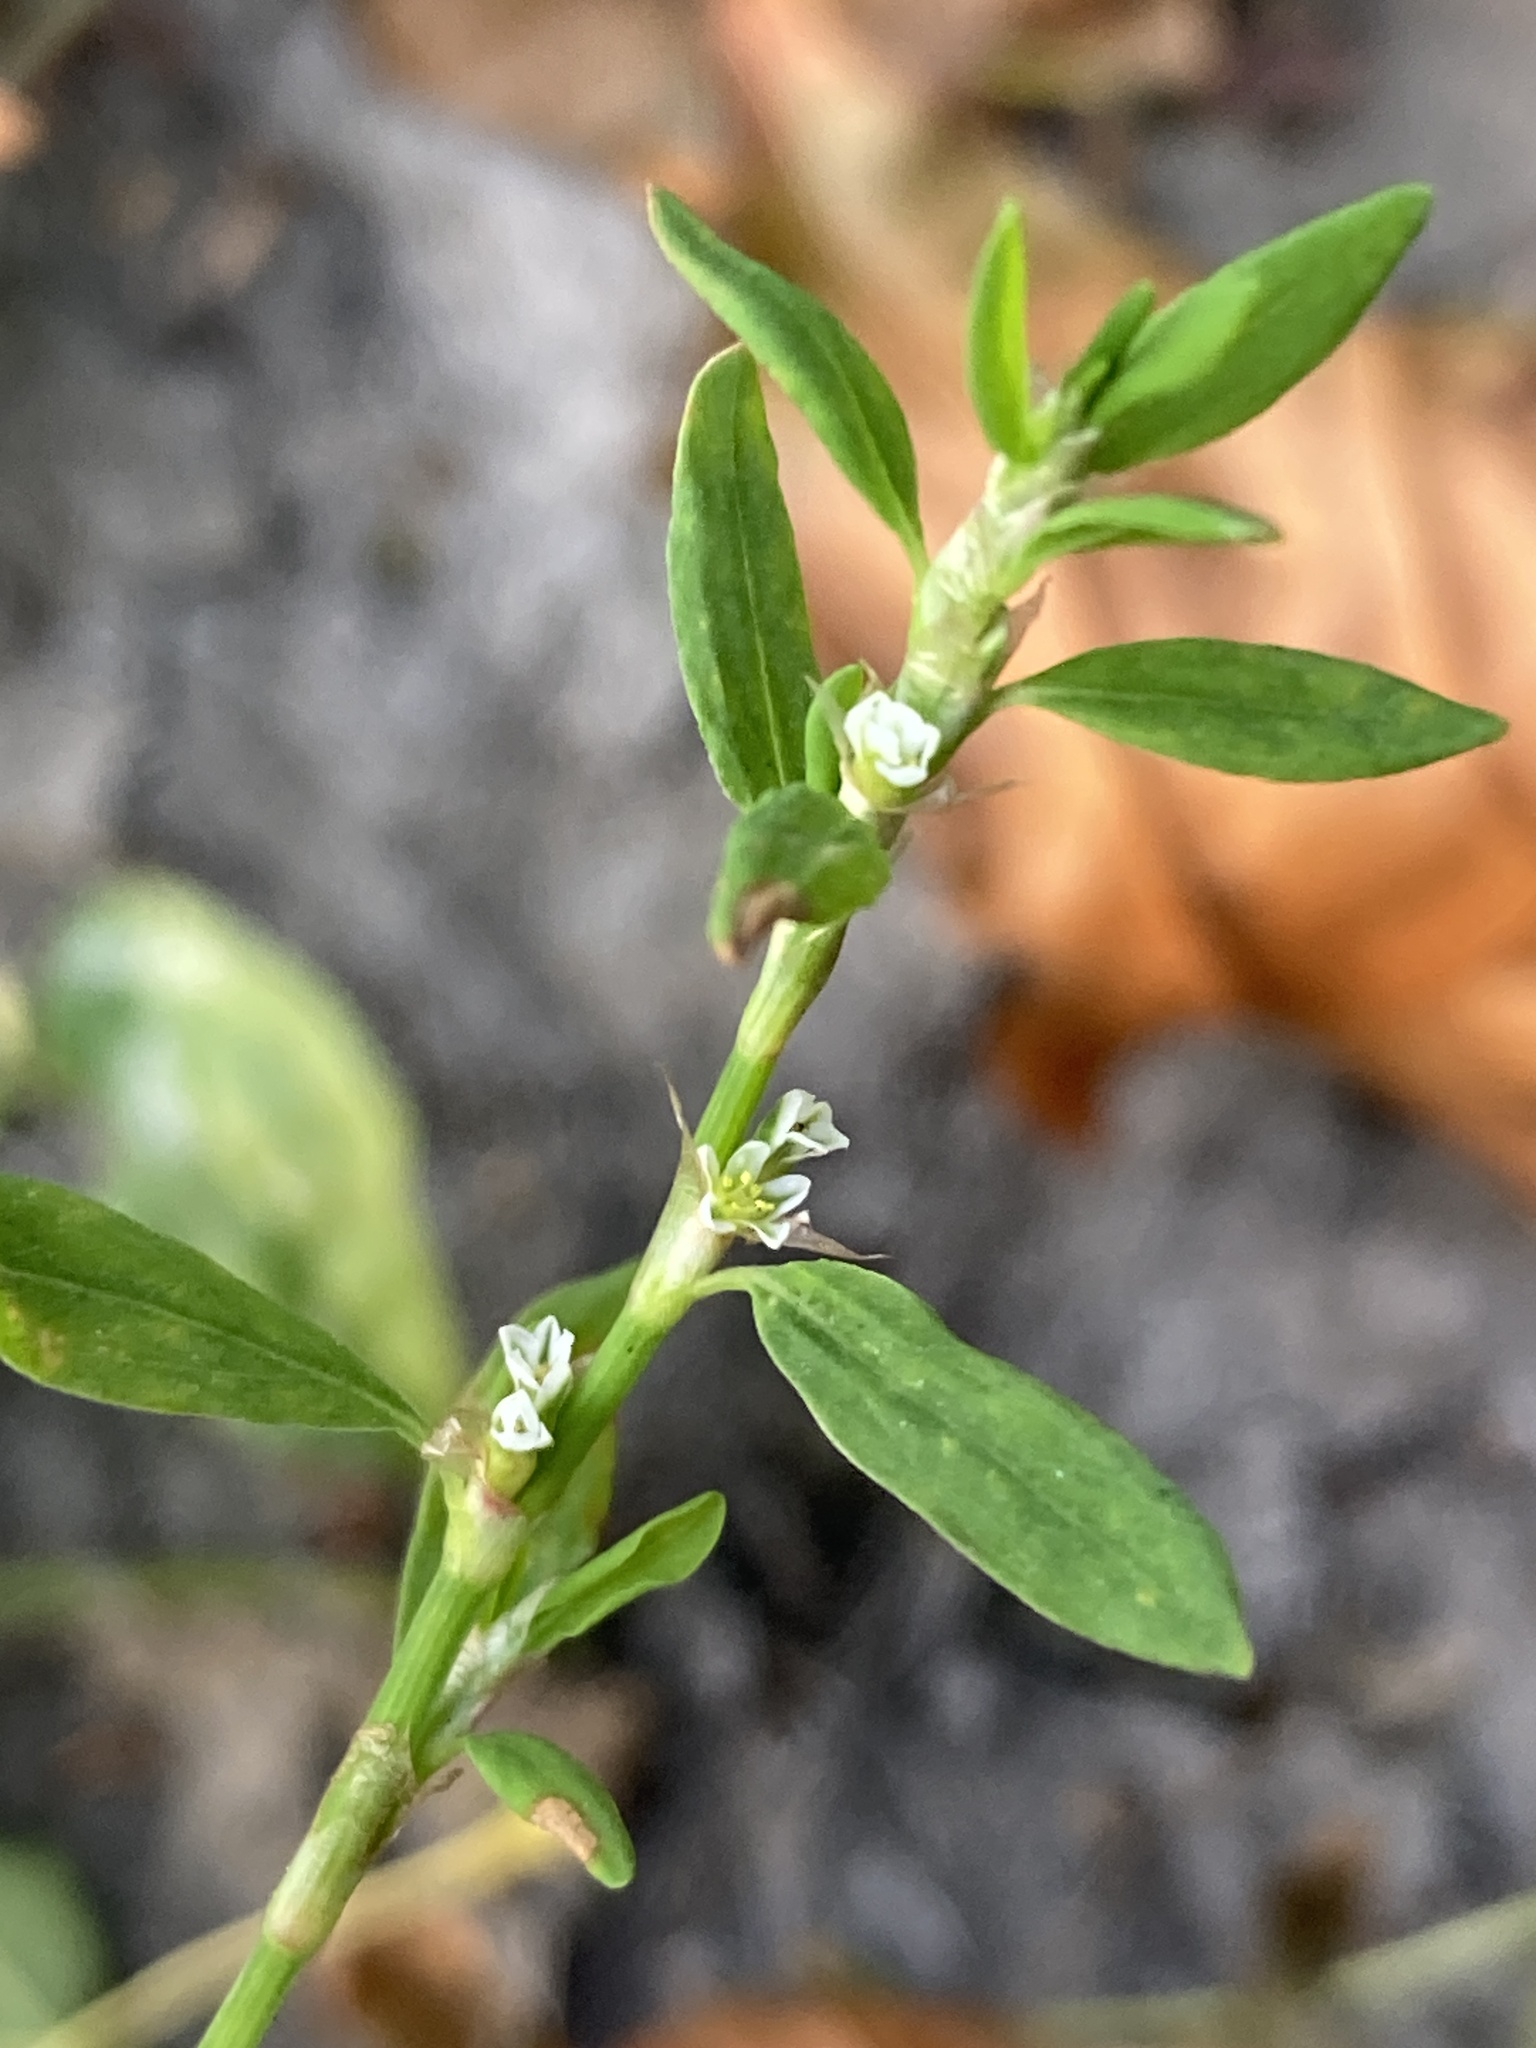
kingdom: Plantae
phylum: Tracheophyta
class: Magnoliopsida
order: Caryophyllales
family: Polygonaceae
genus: Polygonum
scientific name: Polygonum
